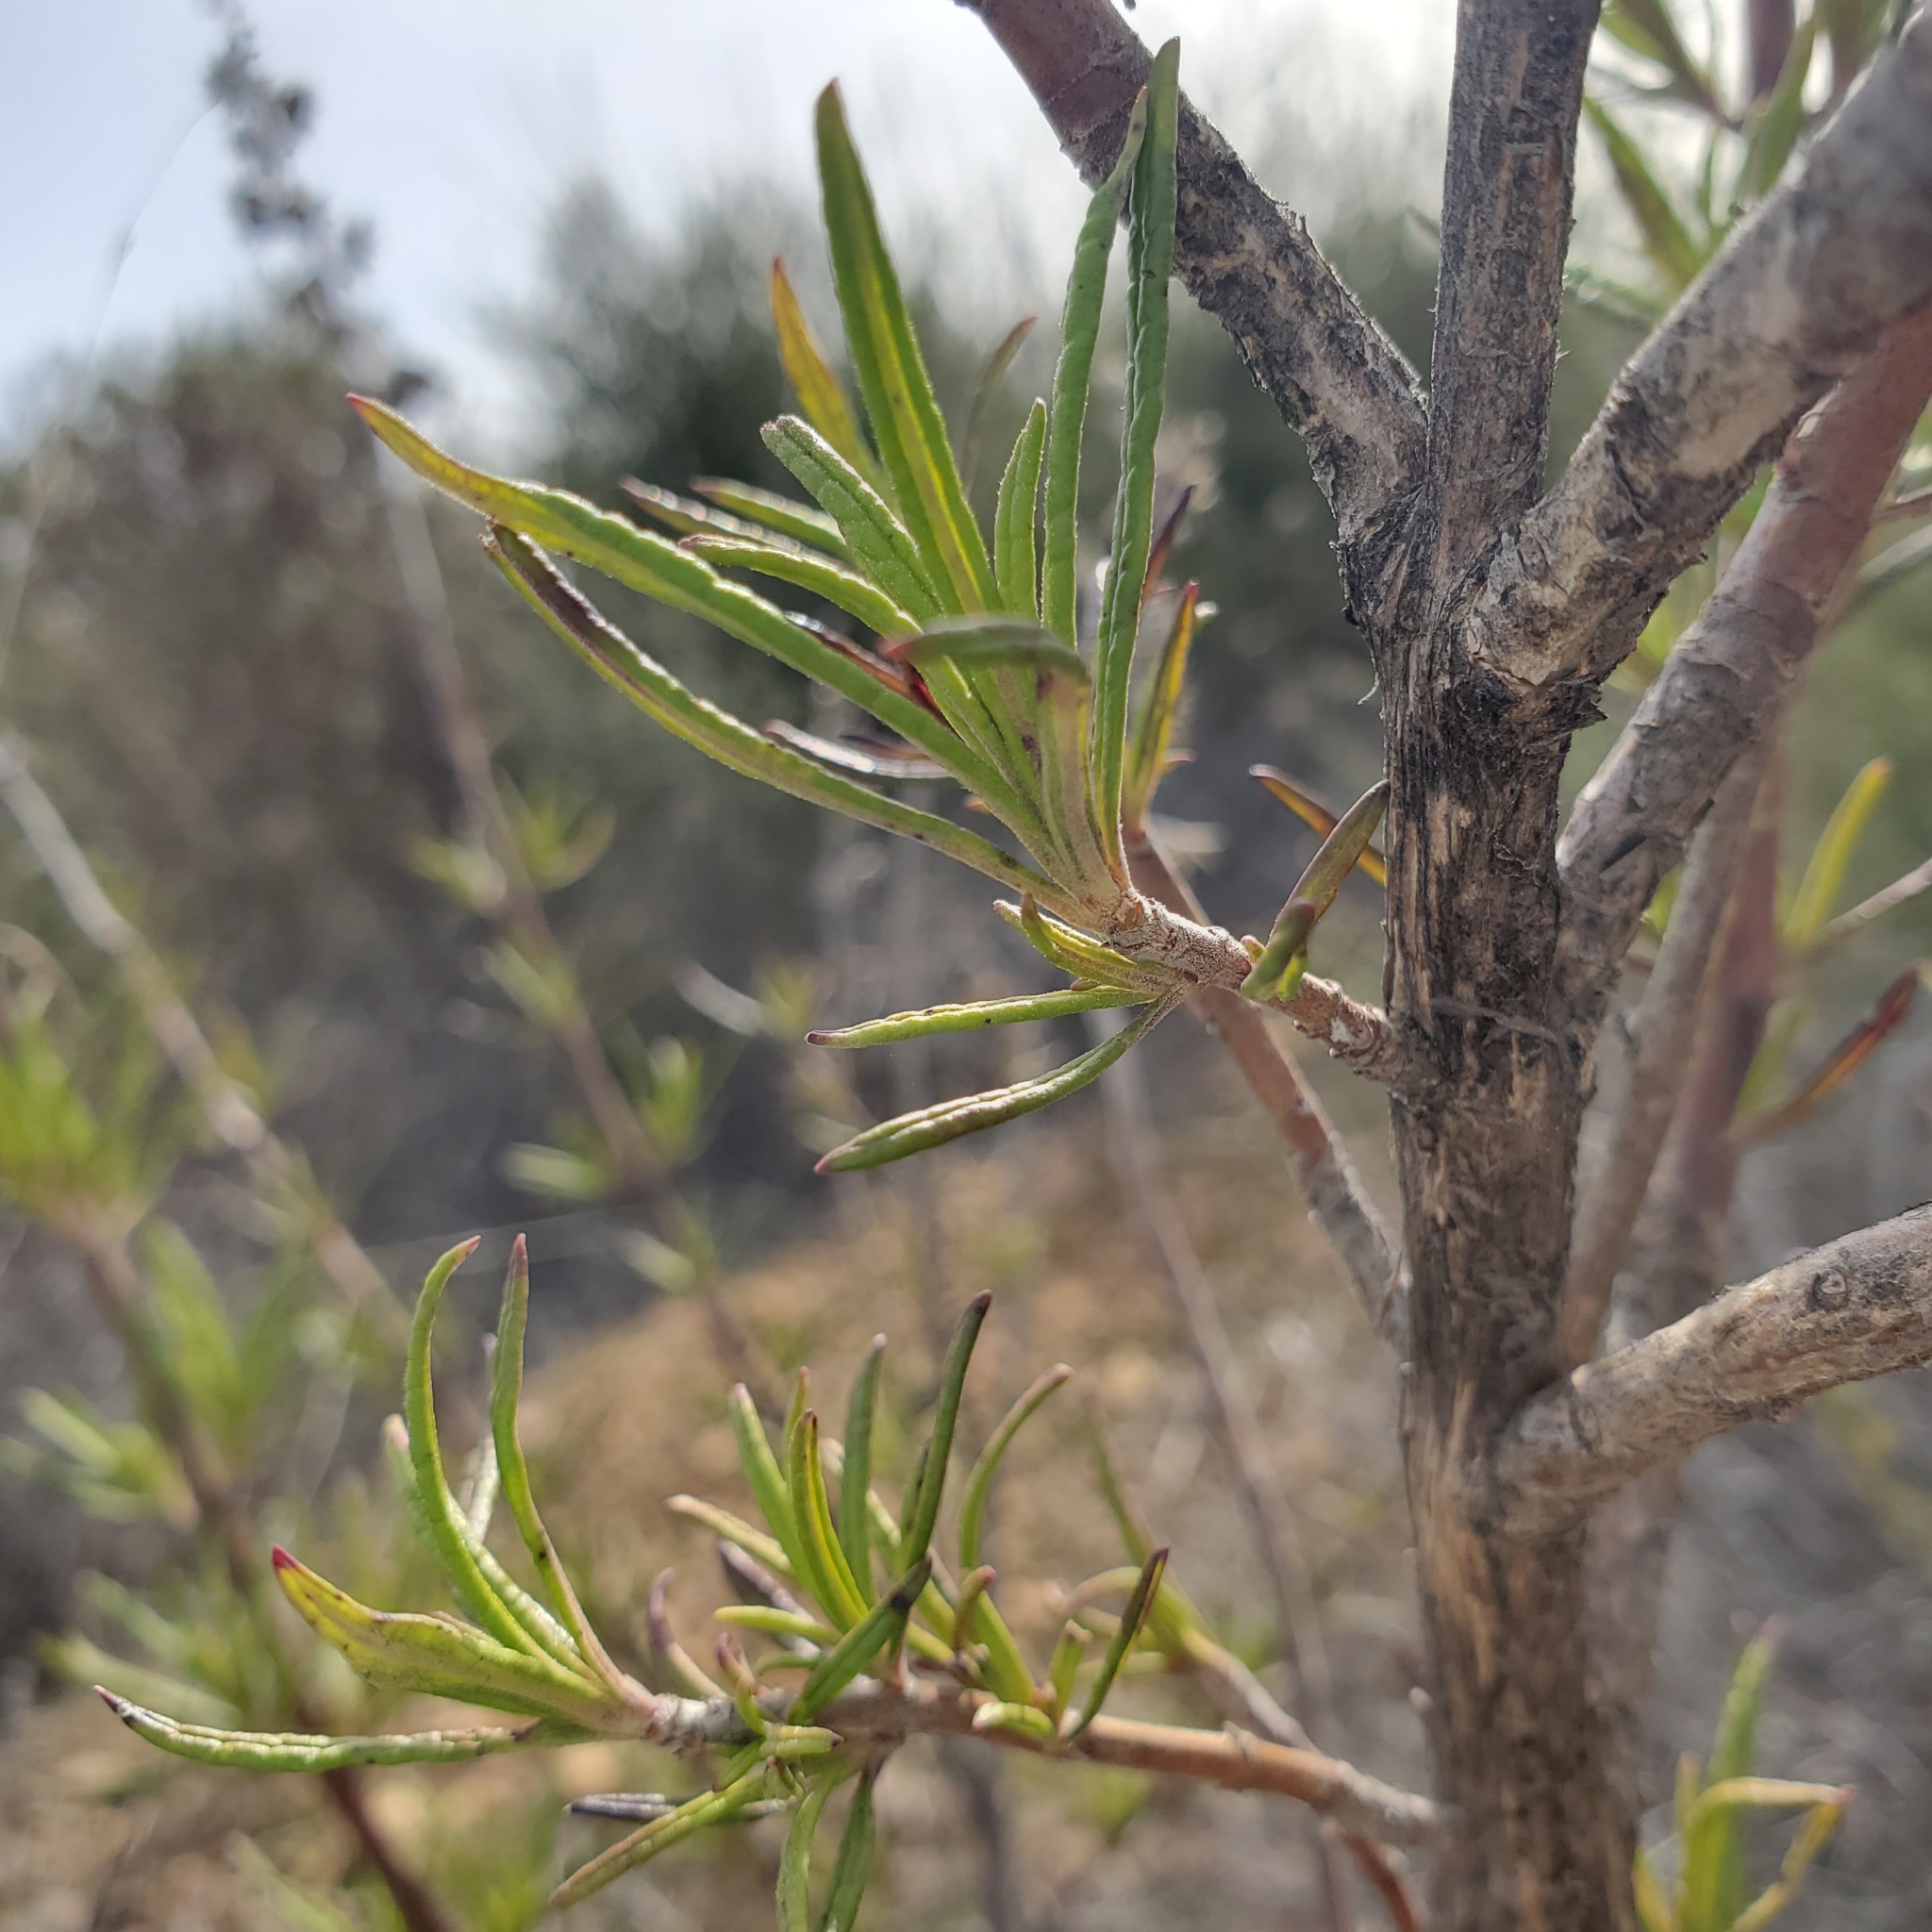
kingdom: Plantae
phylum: Tracheophyta
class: Magnoliopsida
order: Lamiales
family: Lamiaceae
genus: Trichostema
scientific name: Trichostema lanatum
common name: Woolly bluecurls
